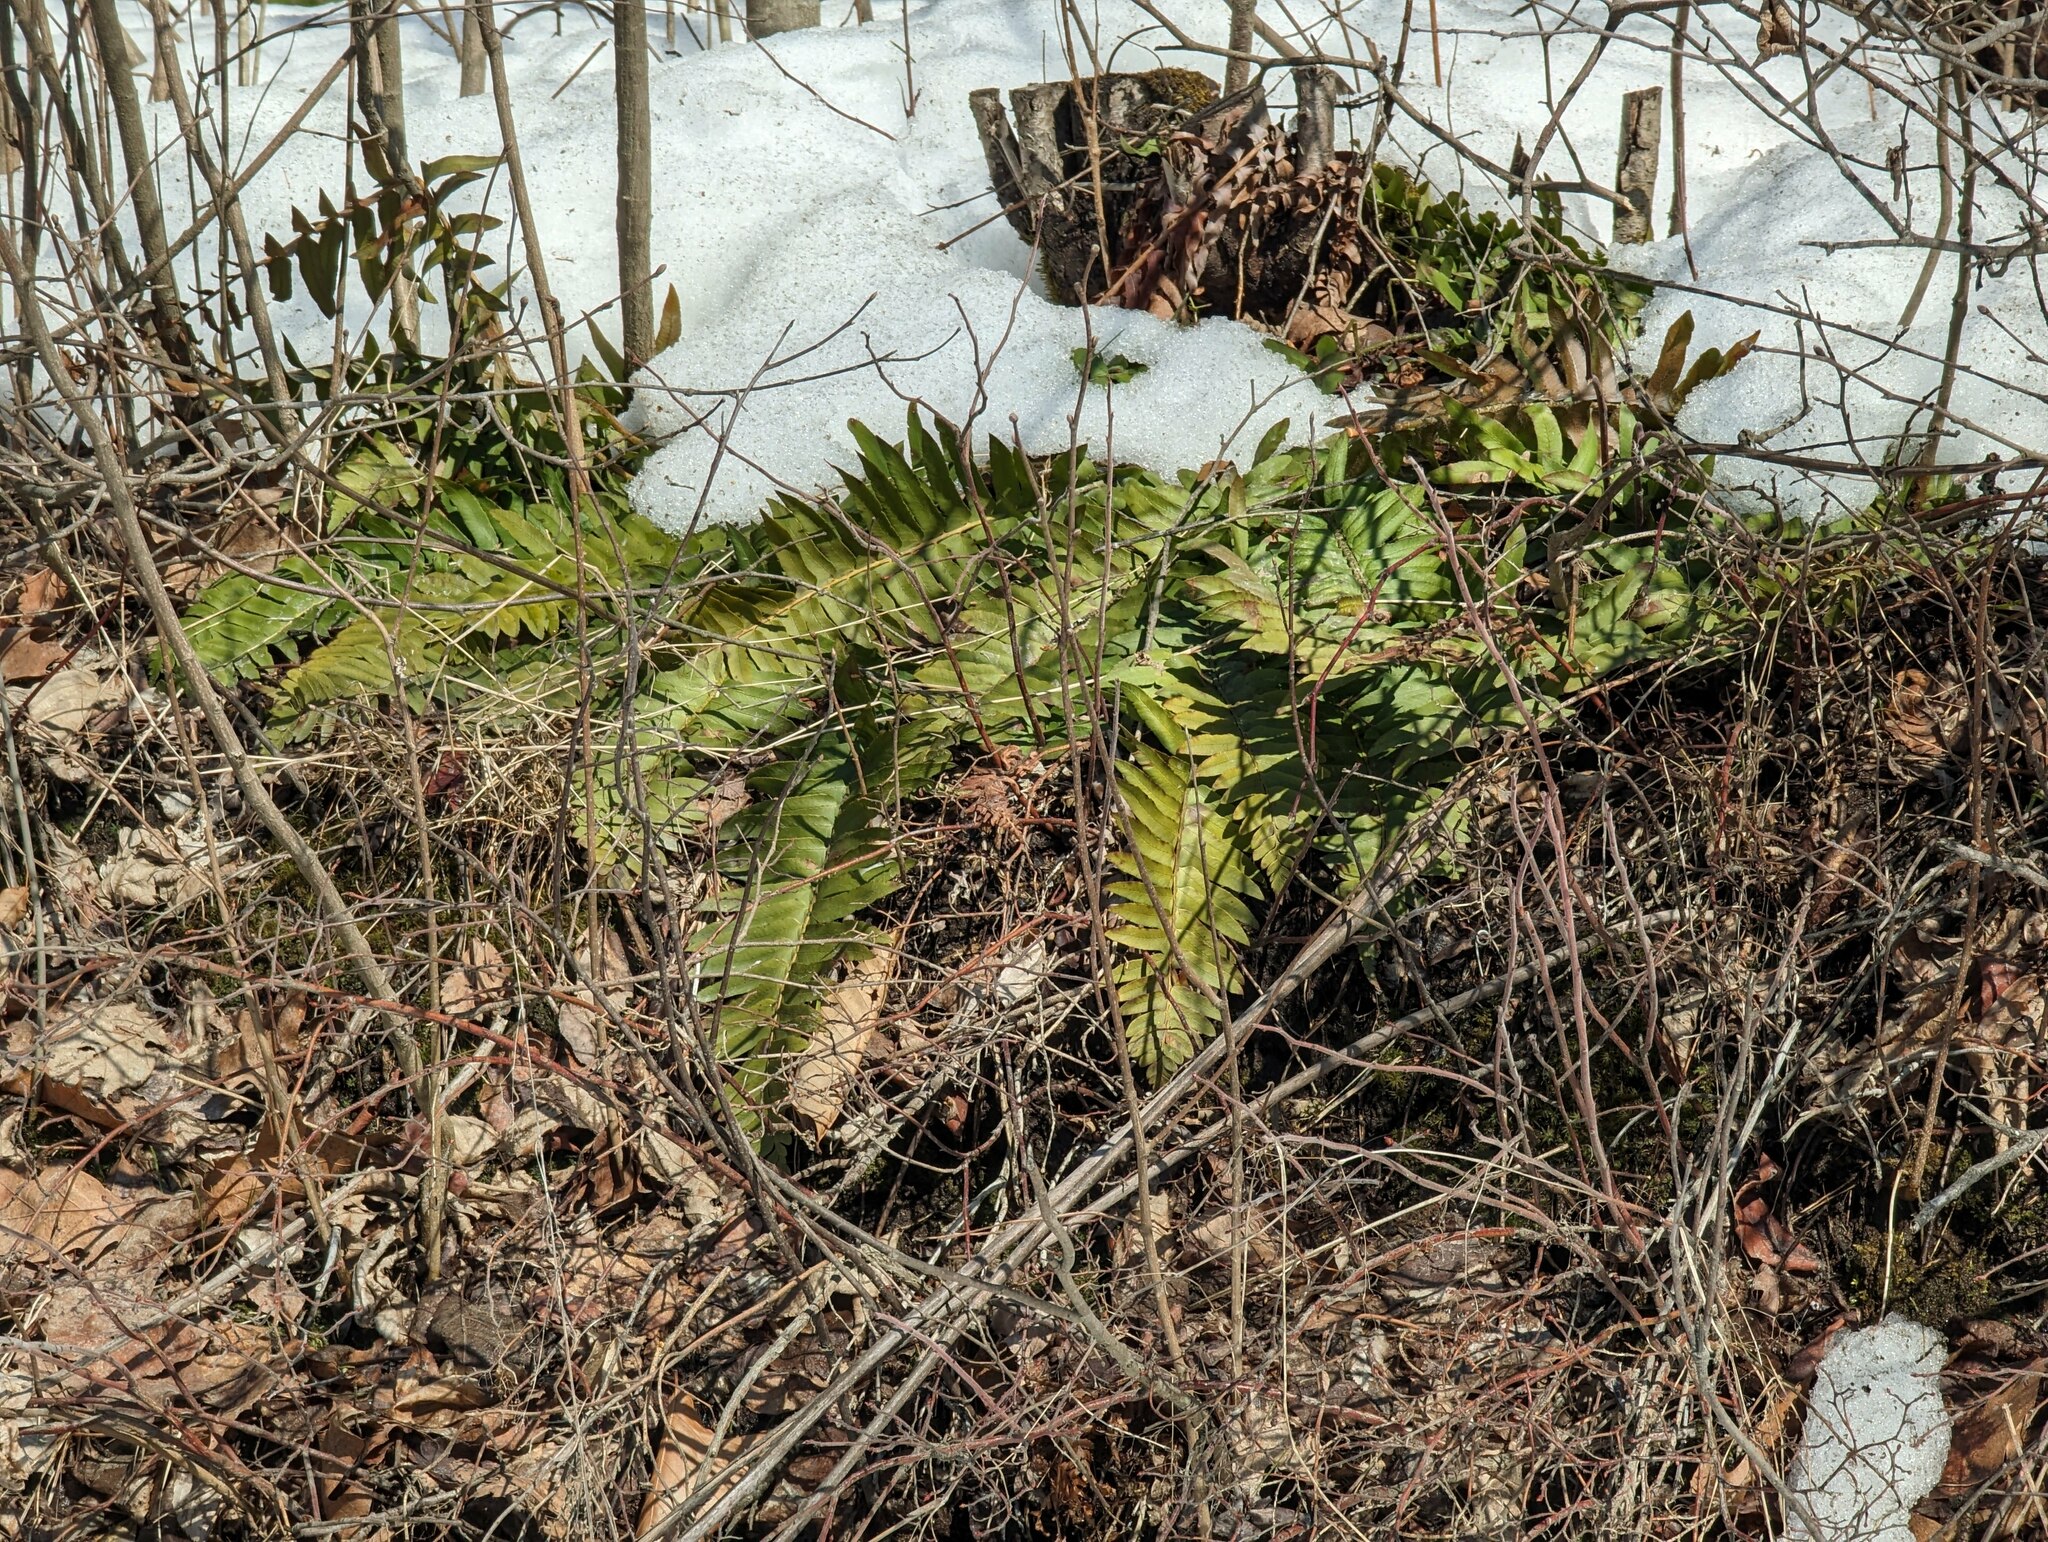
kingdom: Plantae
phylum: Tracheophyta
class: Polypodiopsida
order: Polypodiales
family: Dryopteridaceae
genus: Polystichum
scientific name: Polystichum acrostichoides
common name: Christmas fern
